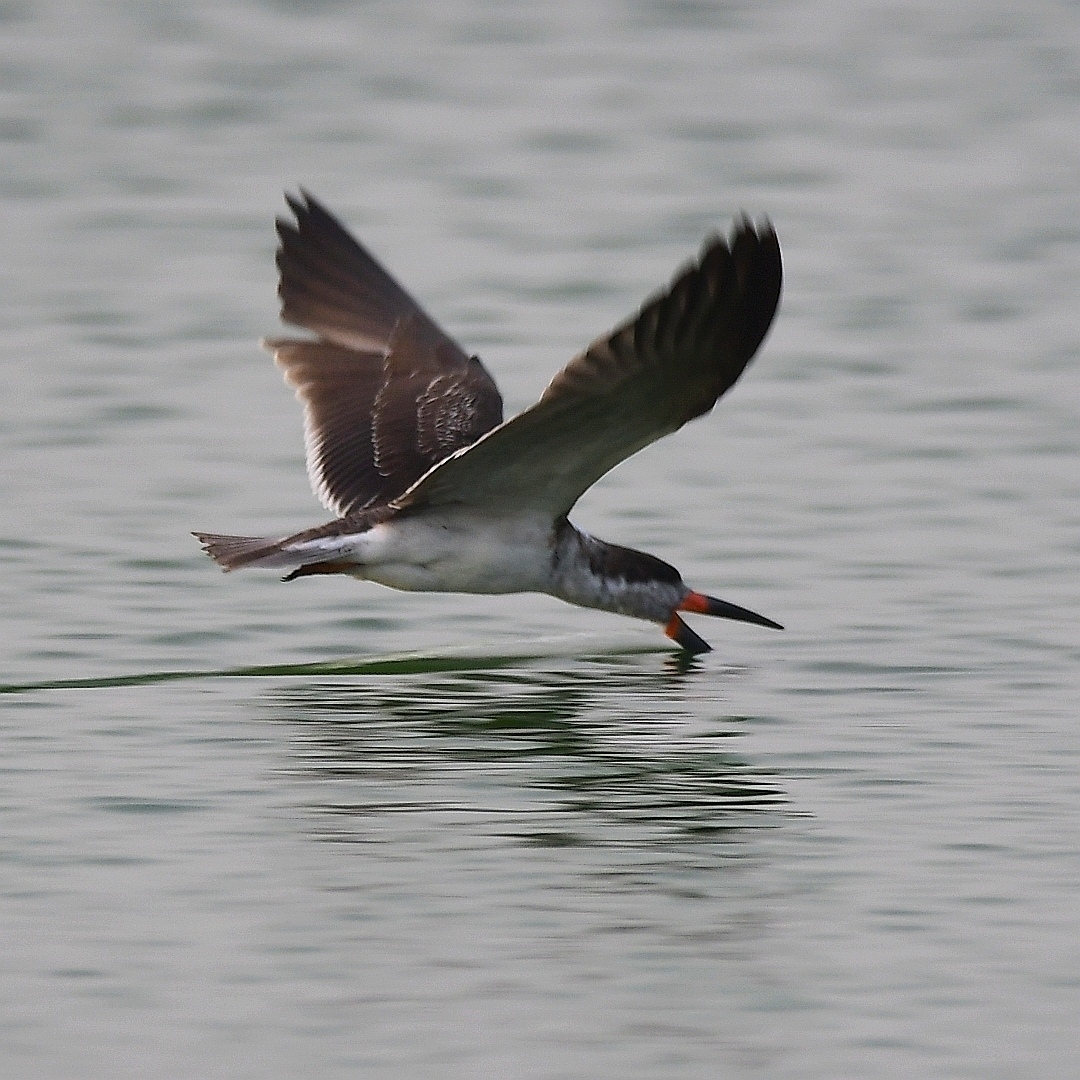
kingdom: Animalia
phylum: Chordata
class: Aves
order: Charadriiformes
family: Laridae
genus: Rynchops
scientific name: Rynchops niger
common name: Black skimmer
